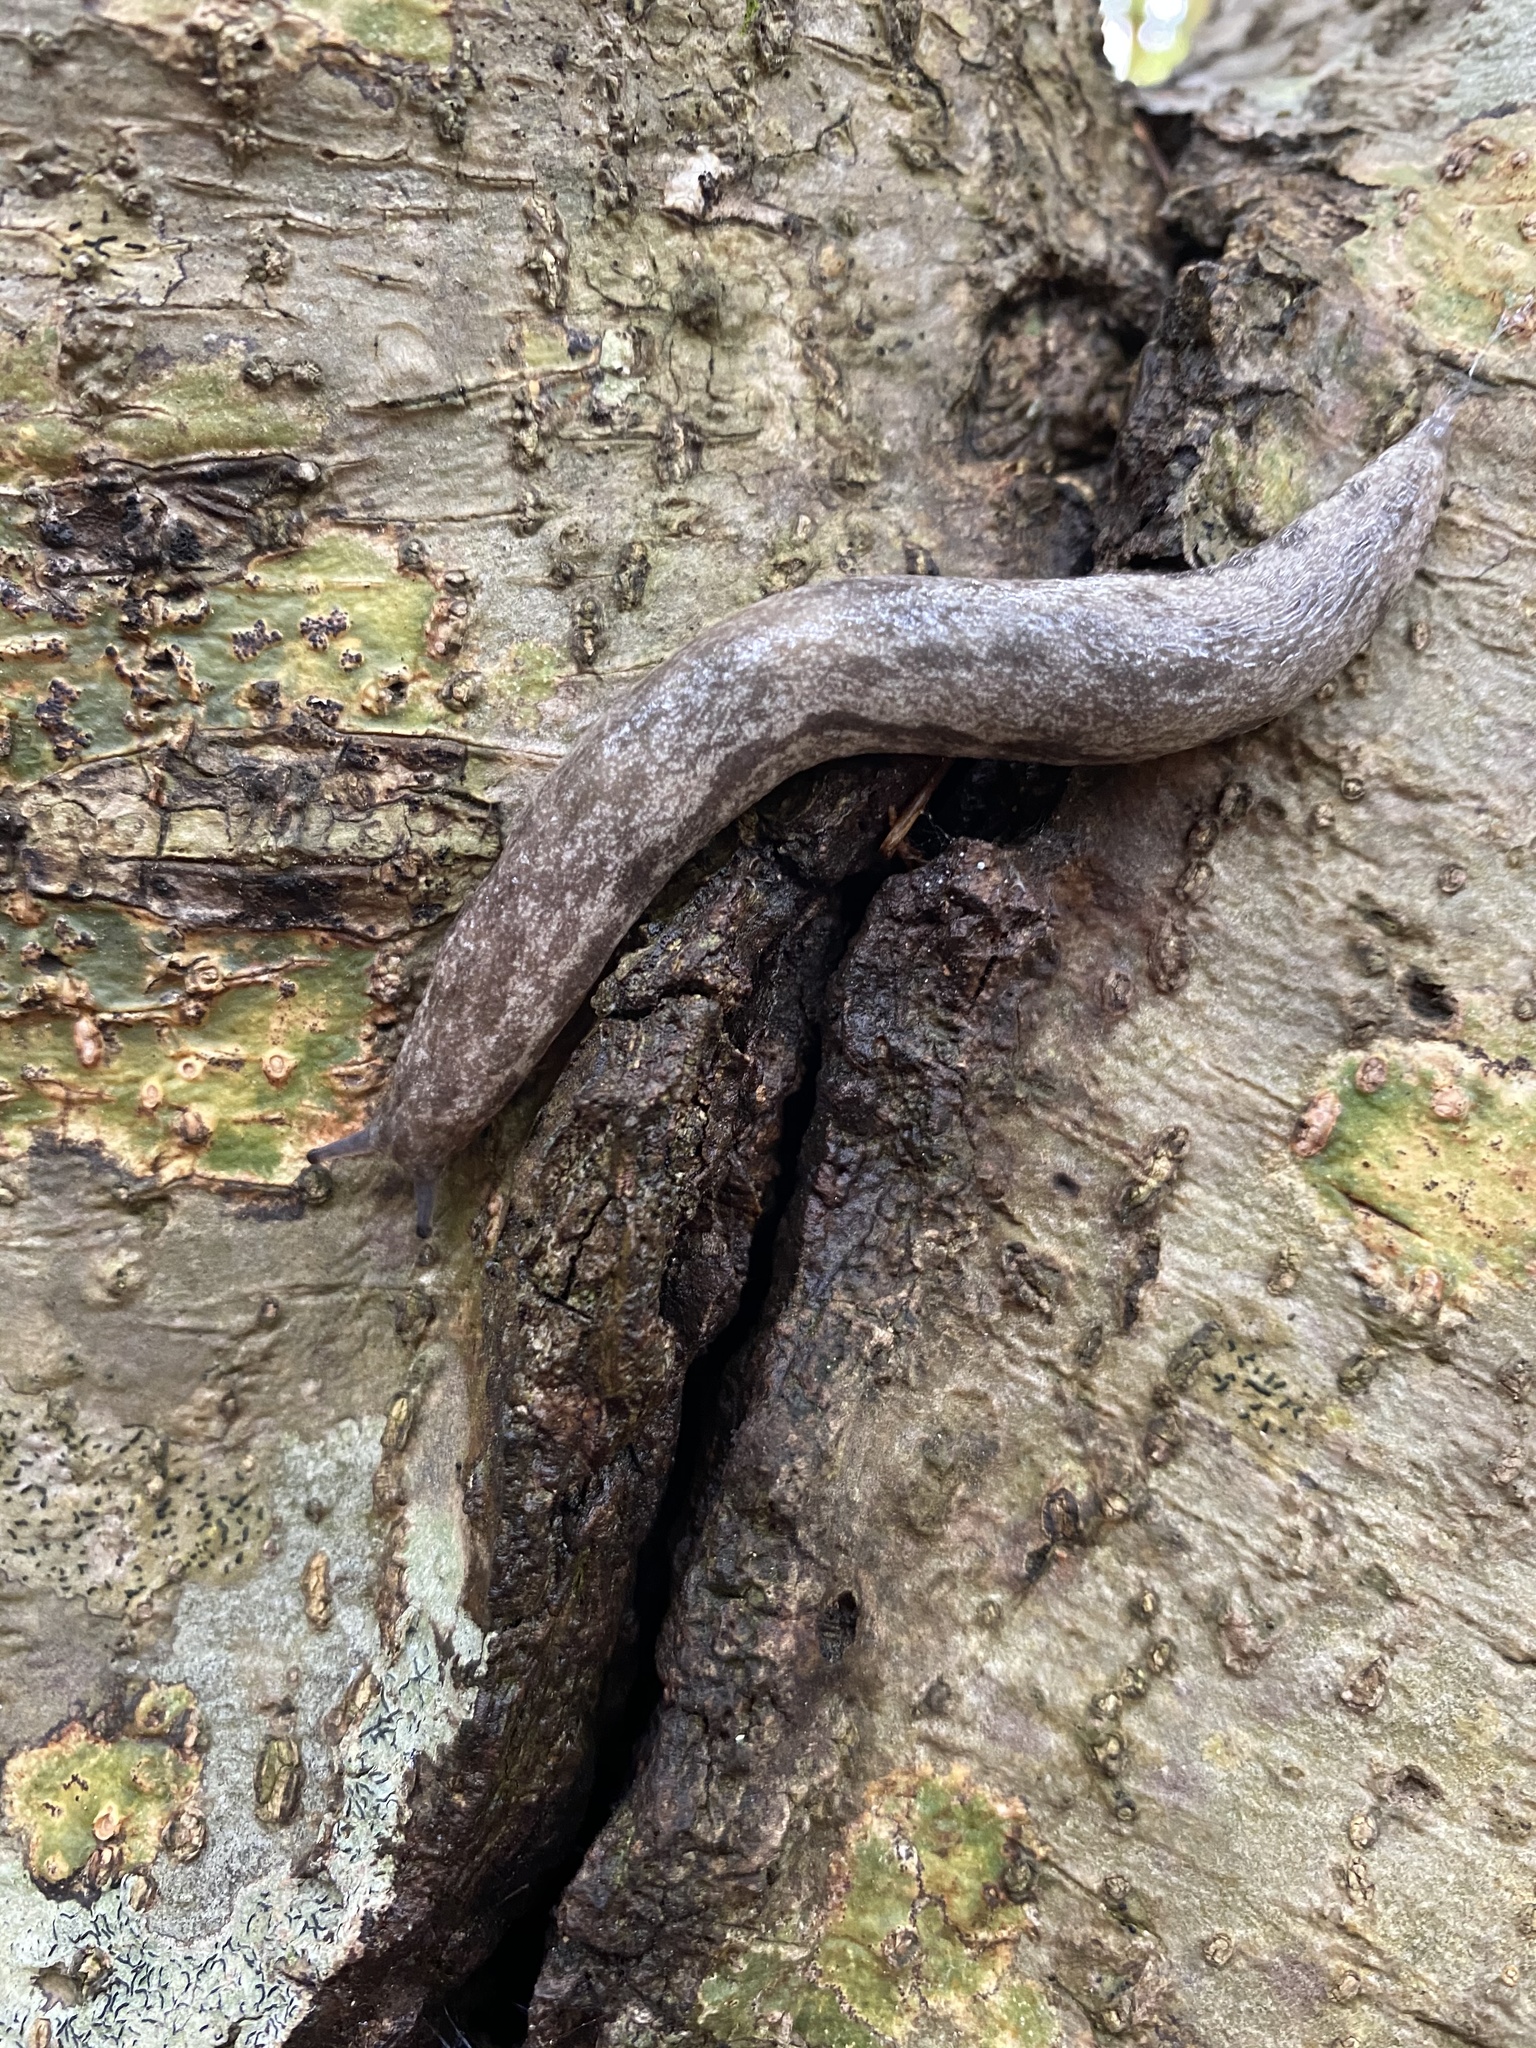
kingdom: Animalia
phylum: Mollusca
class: Gastropoda
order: Stylommatophora
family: Philomycidae
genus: Megapallifera
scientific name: Megapallifera mutabilis
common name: Changeable mantleslug
